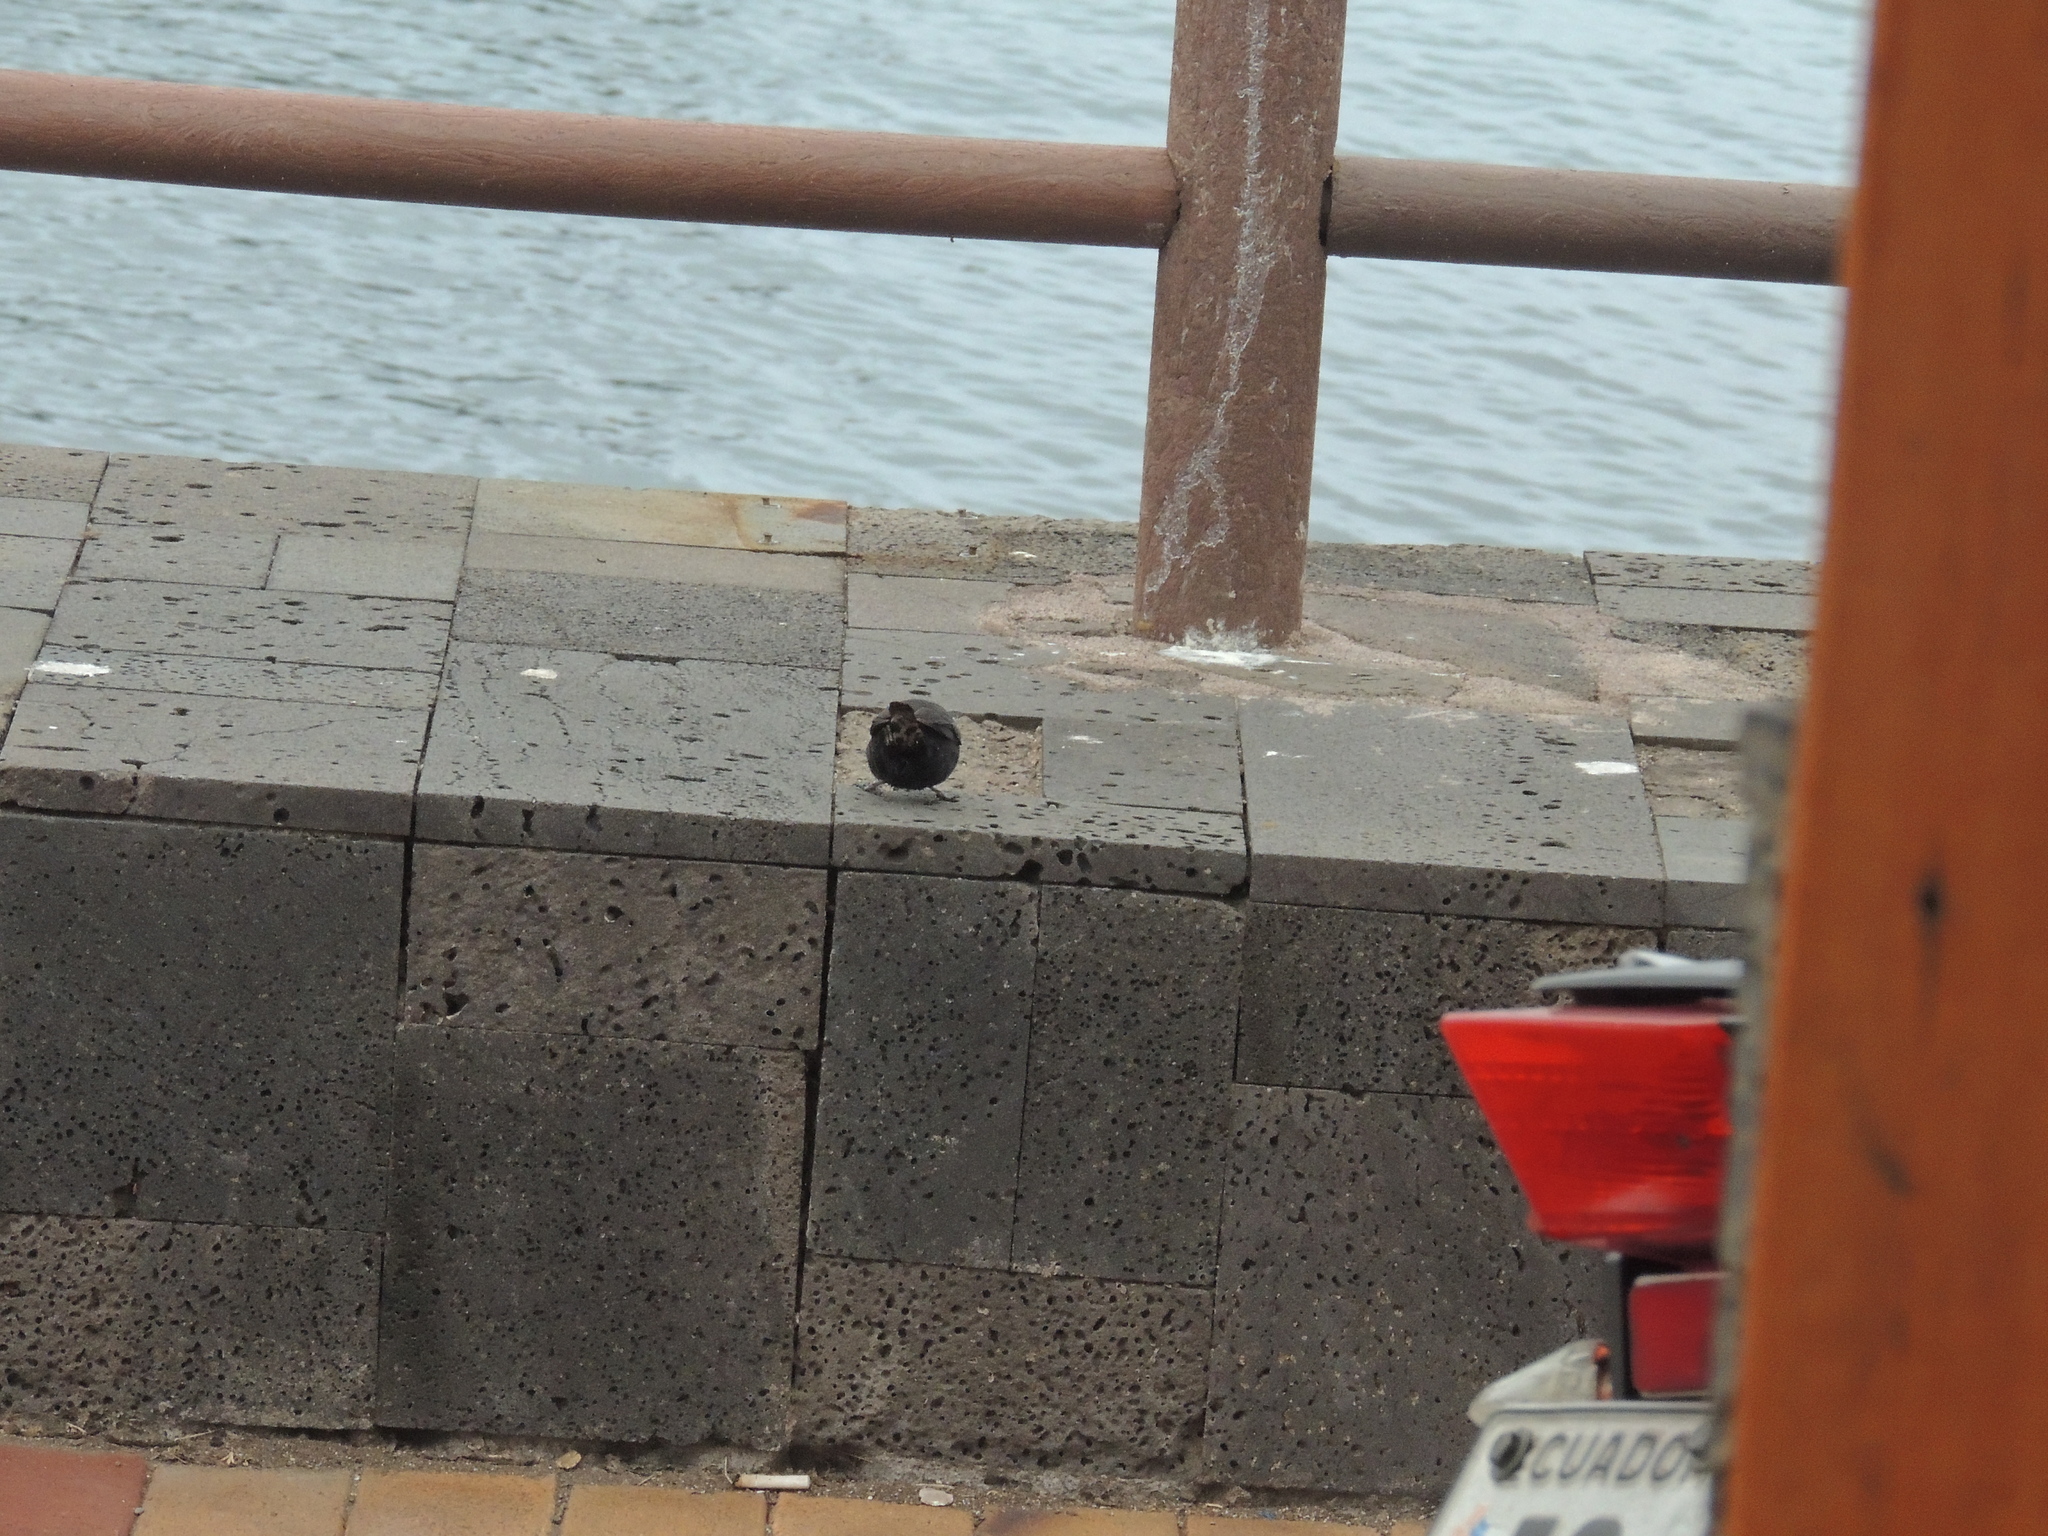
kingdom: Animalia
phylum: Chordata
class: Aves
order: Passeriformes
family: Thraupidae
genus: Geospiza
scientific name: Geospiza fuliginosa
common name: Small ground finch
